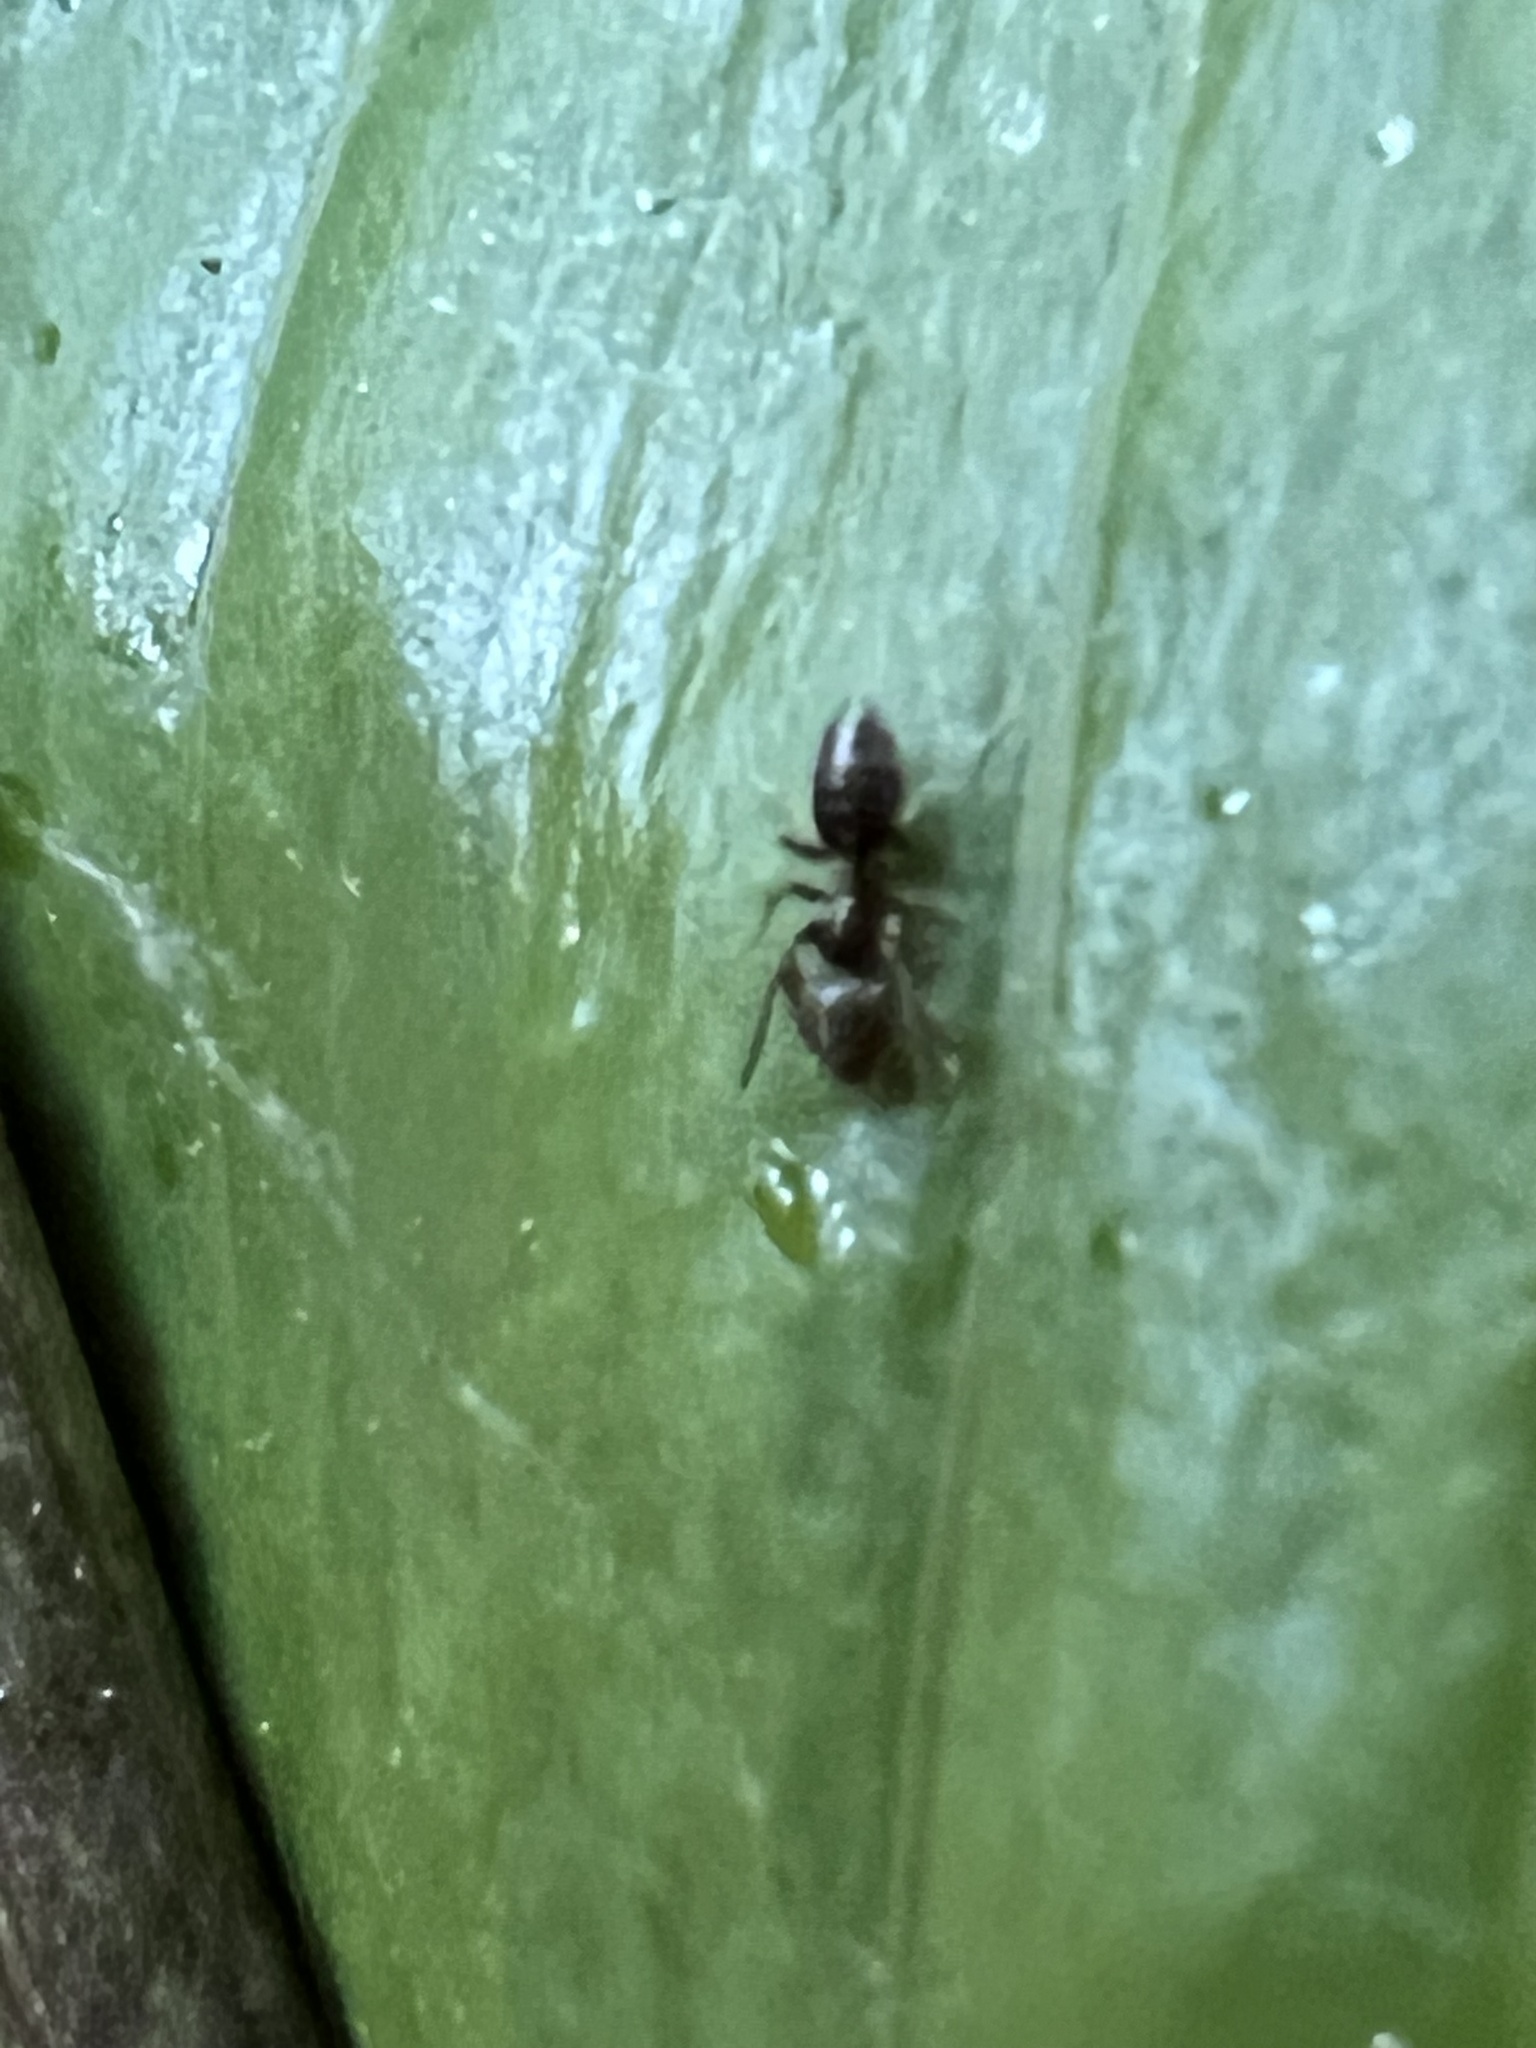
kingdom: Animalia
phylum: Arthropoda
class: Insecta
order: Hymenoptera
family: Formicidae
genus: Tapinoma
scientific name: Tapinoma sessile
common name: Odorous house ant
